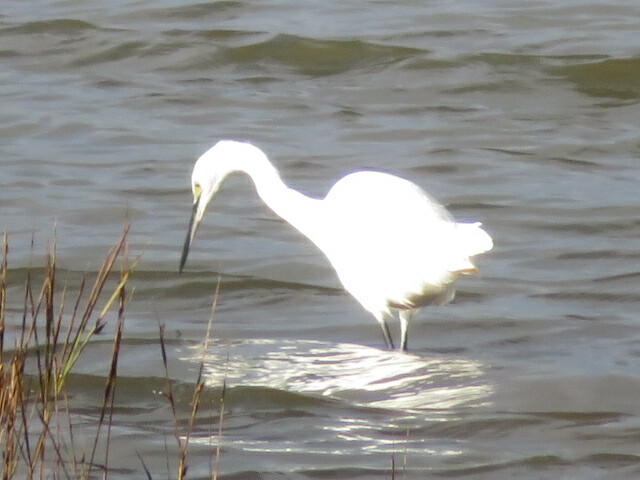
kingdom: Animalia
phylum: Chordata
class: Aves
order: Pelecaniformes
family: Ardeidae
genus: Egretta
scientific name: Egretta garzetta
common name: Little egret
